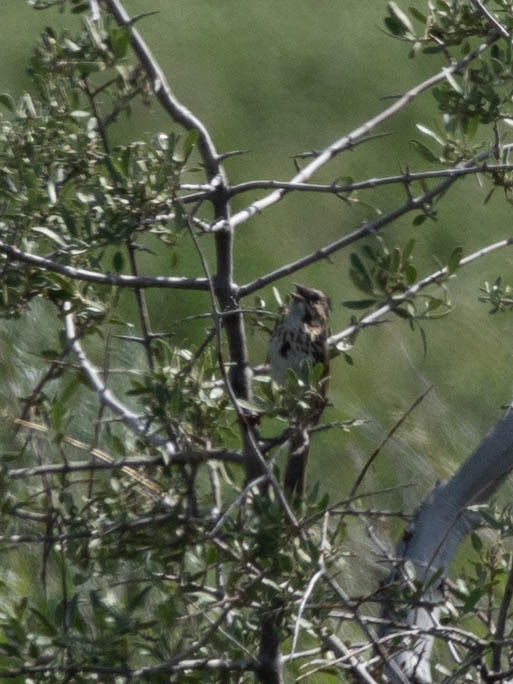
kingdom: Animalia
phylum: Chordata
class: Aves
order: Passeriformes
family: Passerellidae
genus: Melospiza
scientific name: Melospiza melodia
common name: Song sparrow
